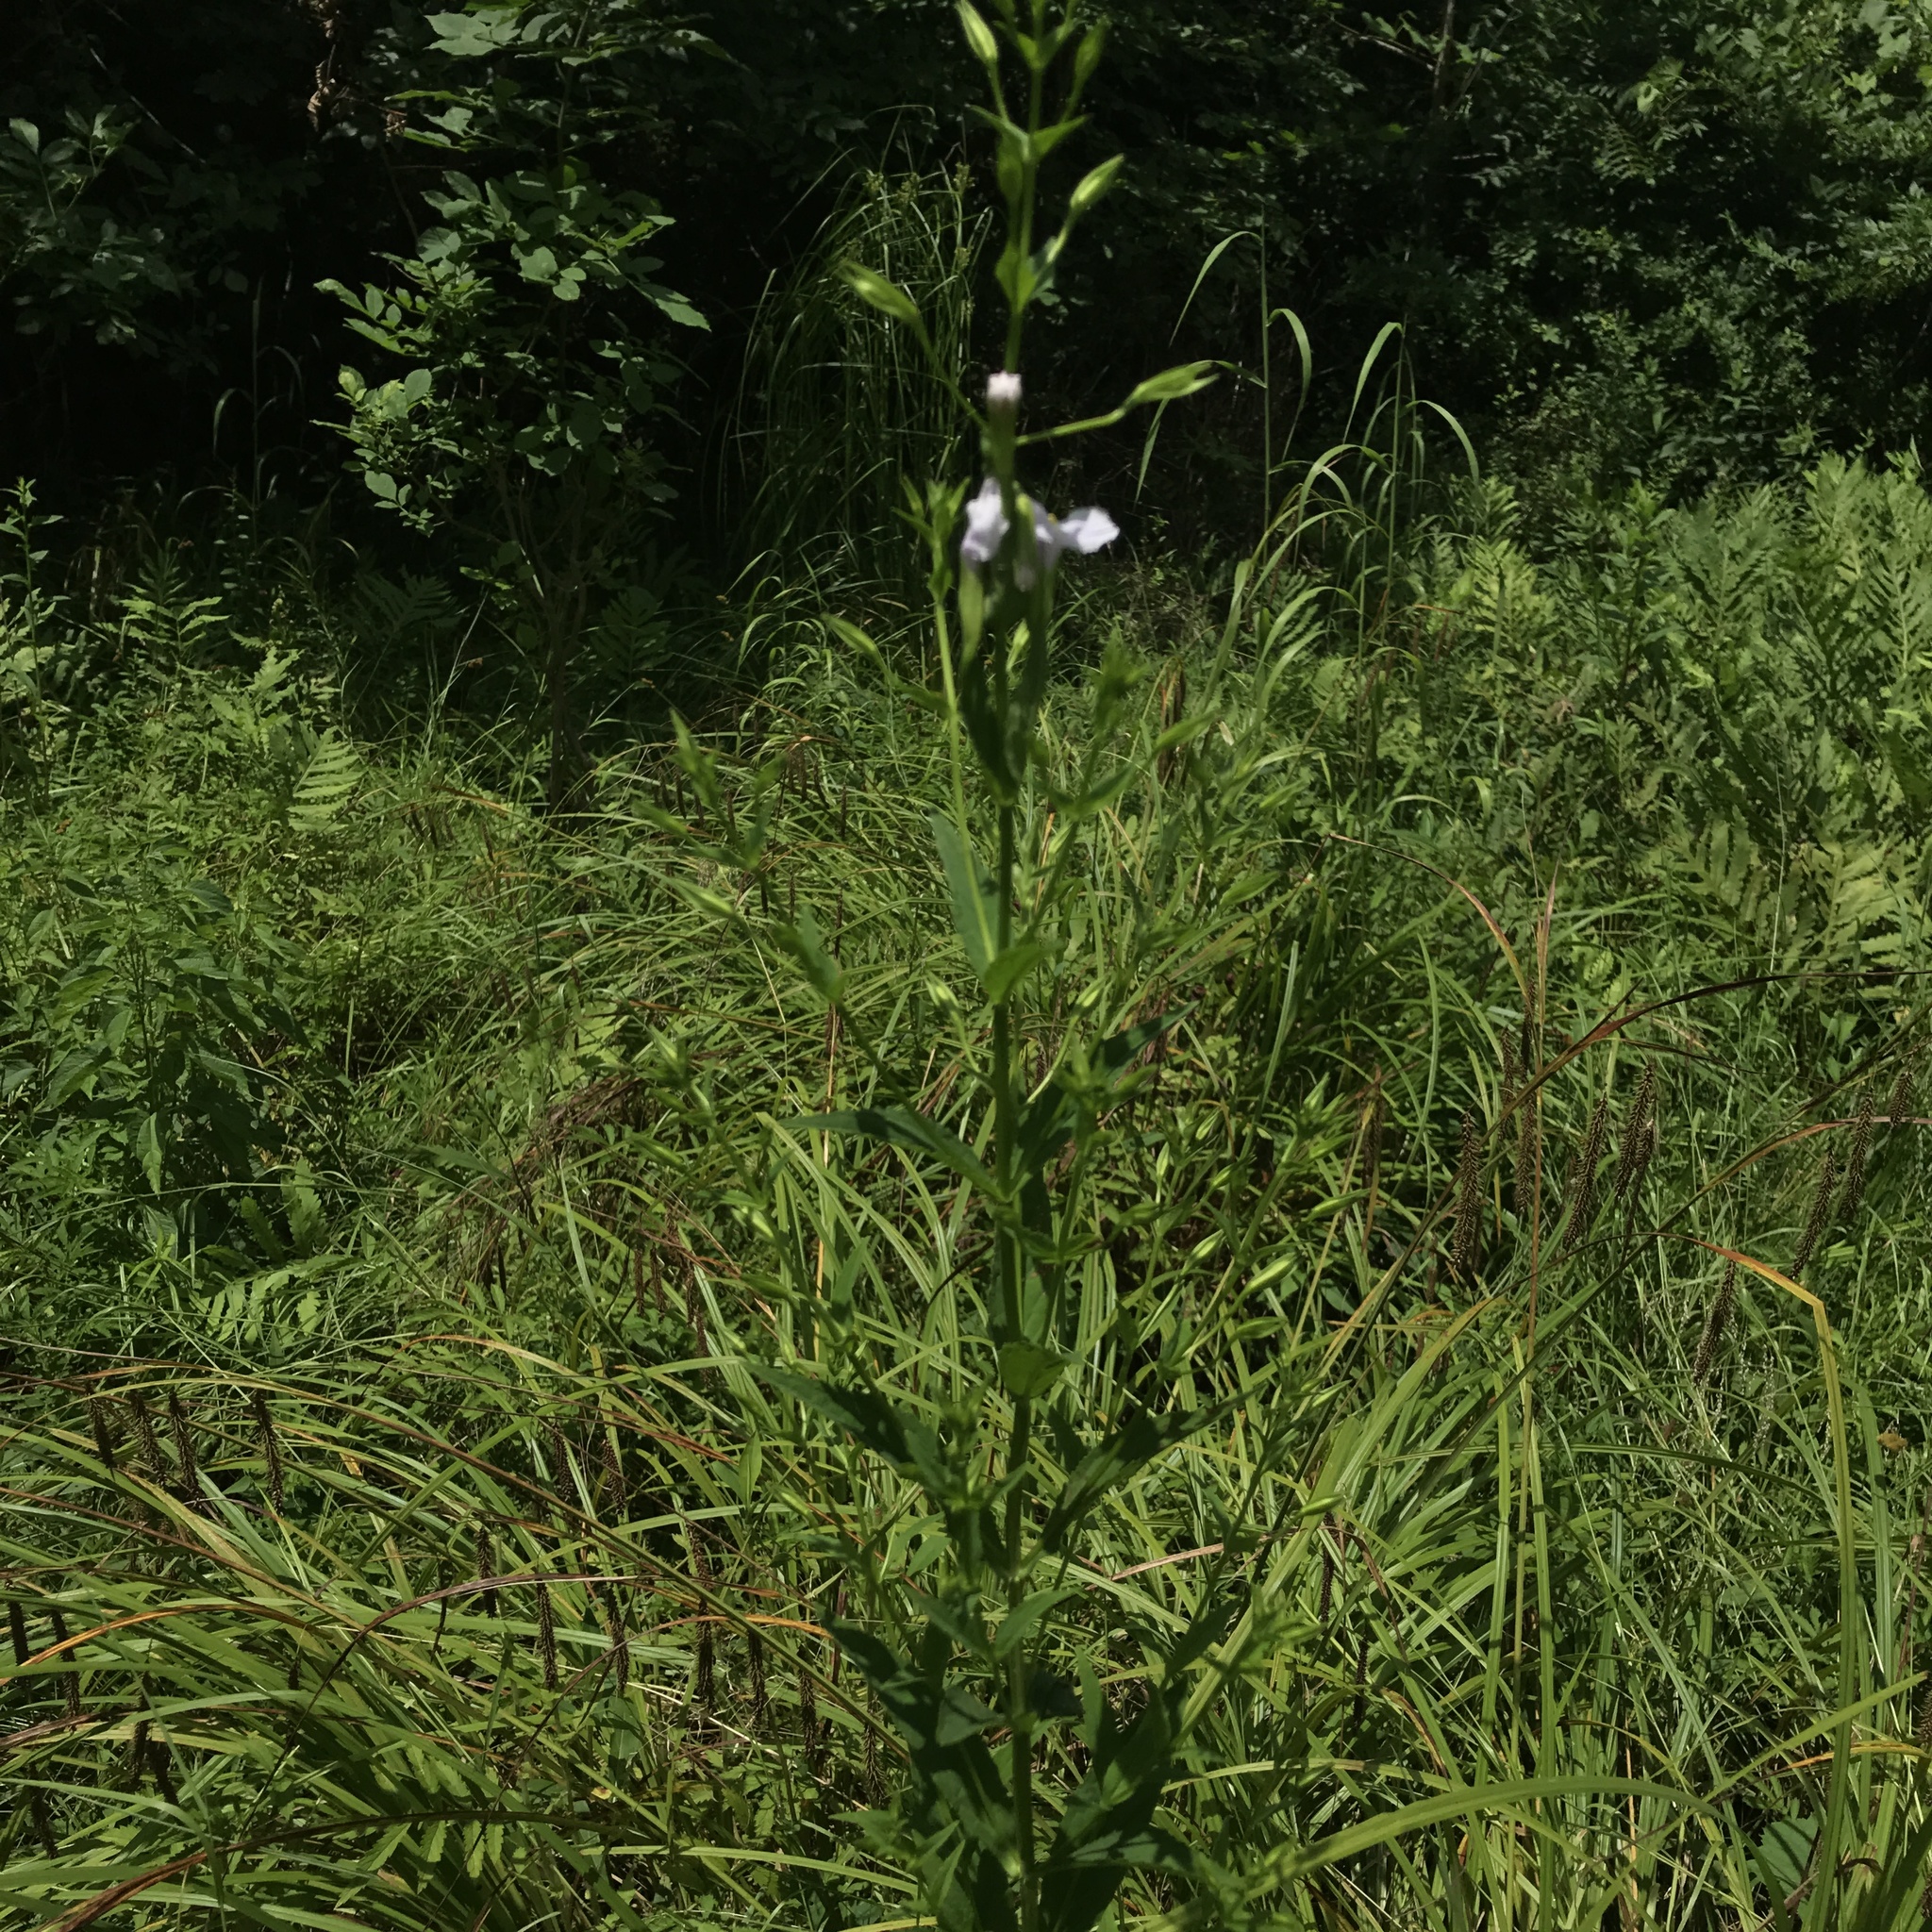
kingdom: Plantae
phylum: Tracheophyta
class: Magnoliopsida
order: Lamiales
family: Phrymaceae
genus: Mimulus
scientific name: Mimulus ringens
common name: Allegheny monkeyflower
